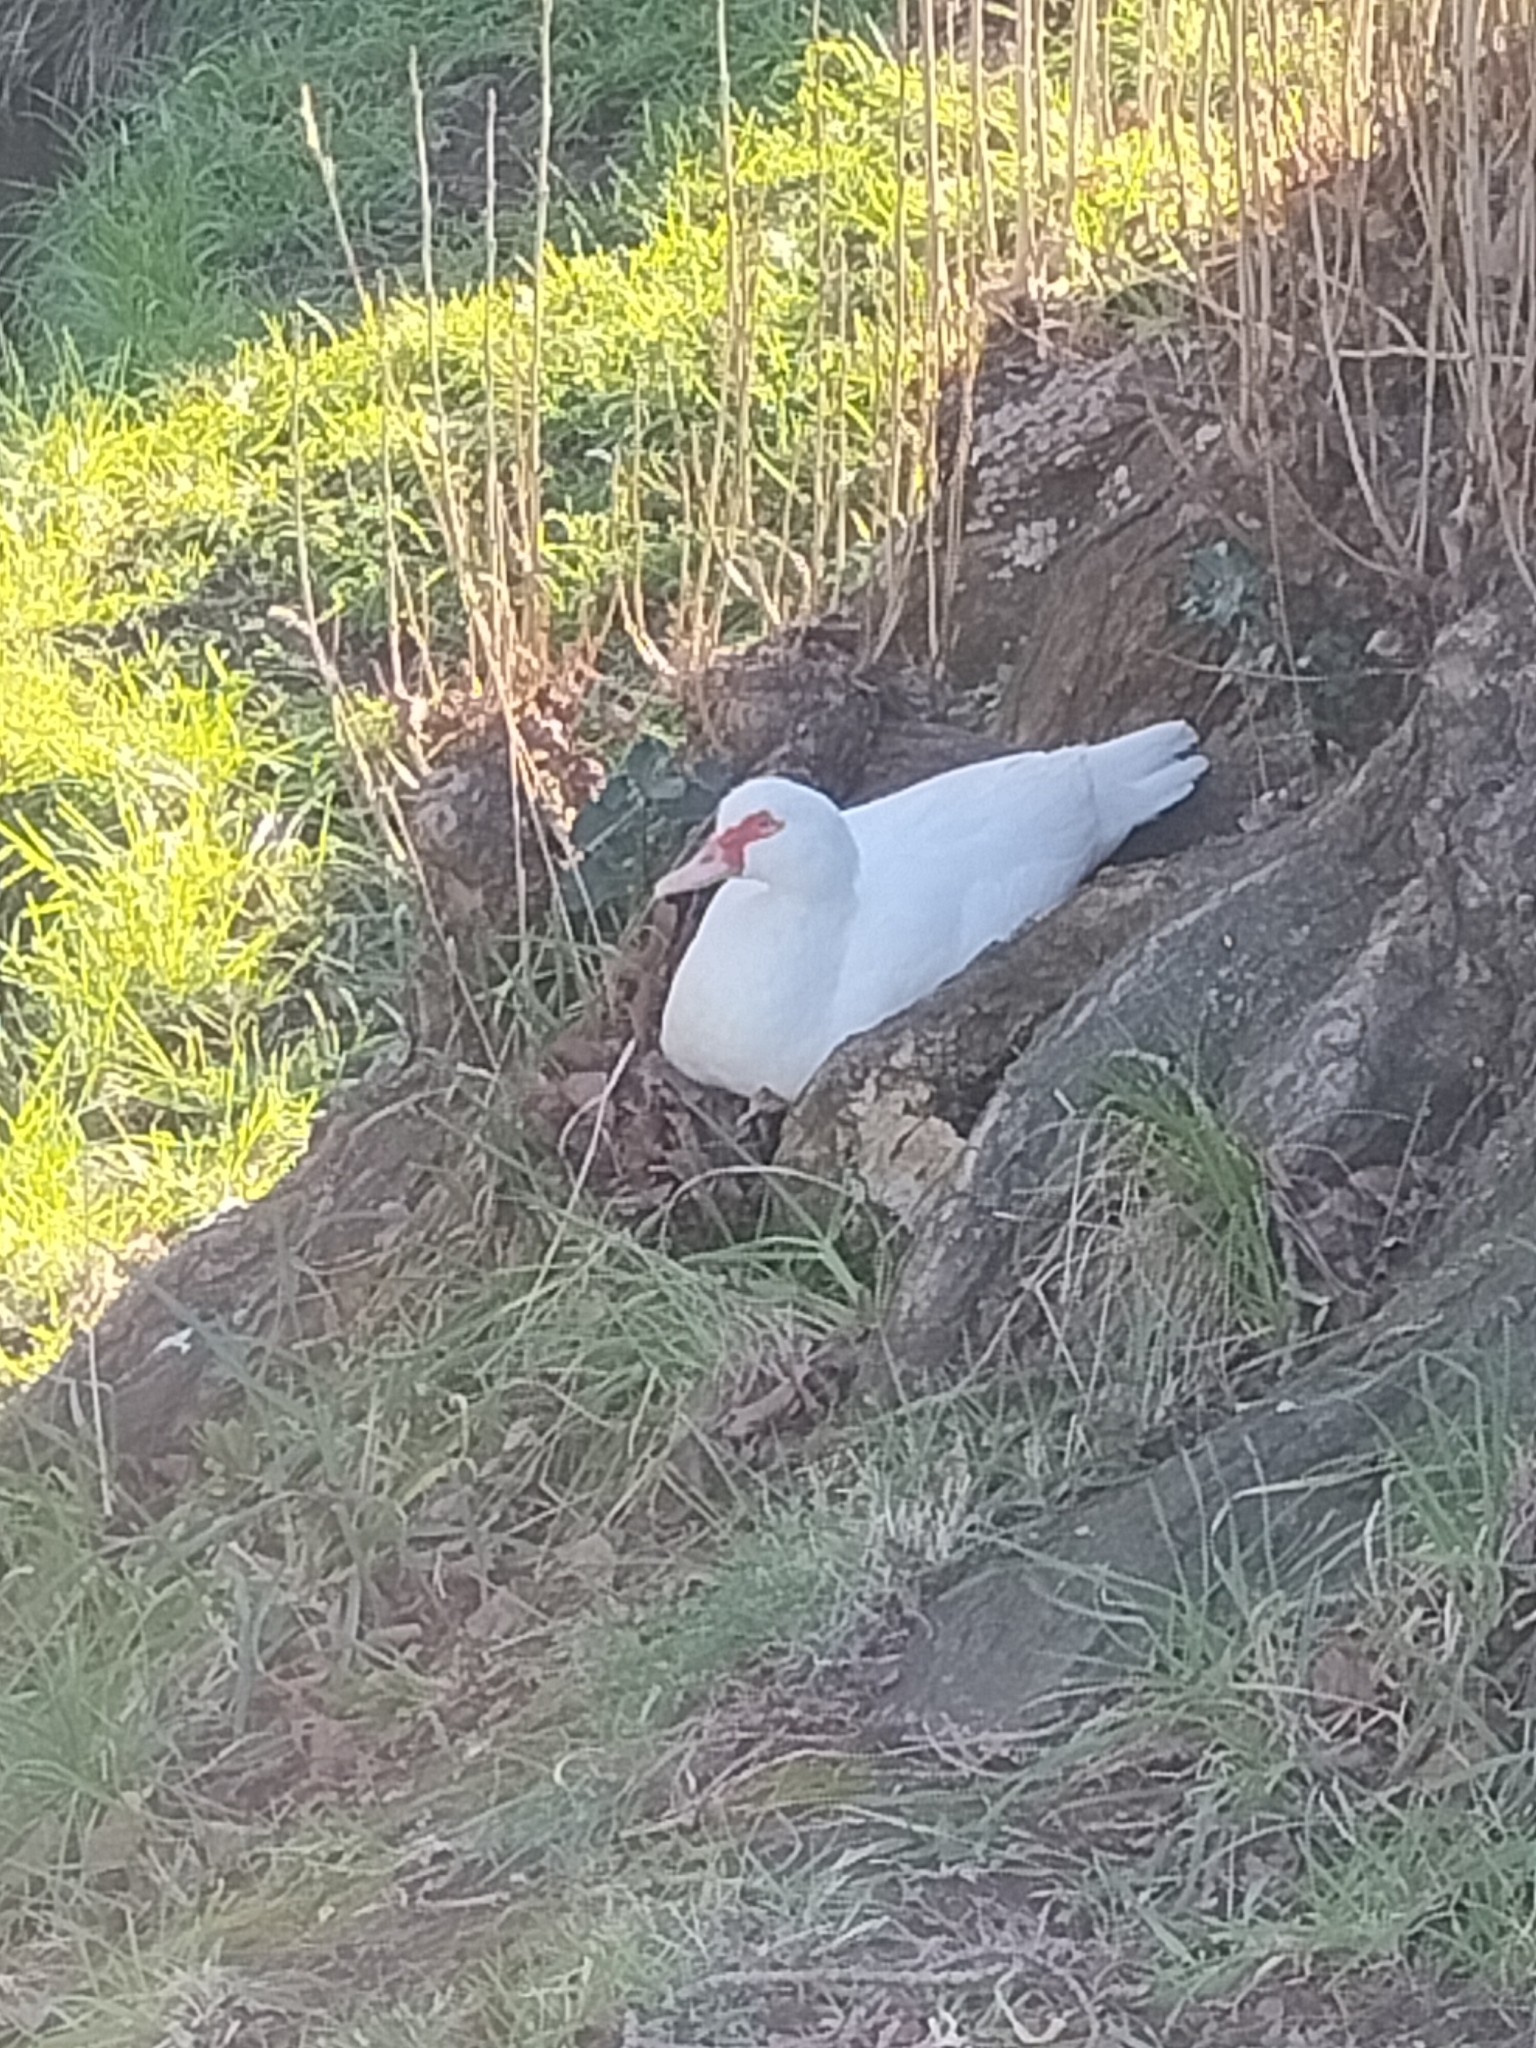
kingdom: Animalia
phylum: Chordata
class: Aves
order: Anseriformes
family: Anatidae
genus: Cairina
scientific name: Cairina moschata
